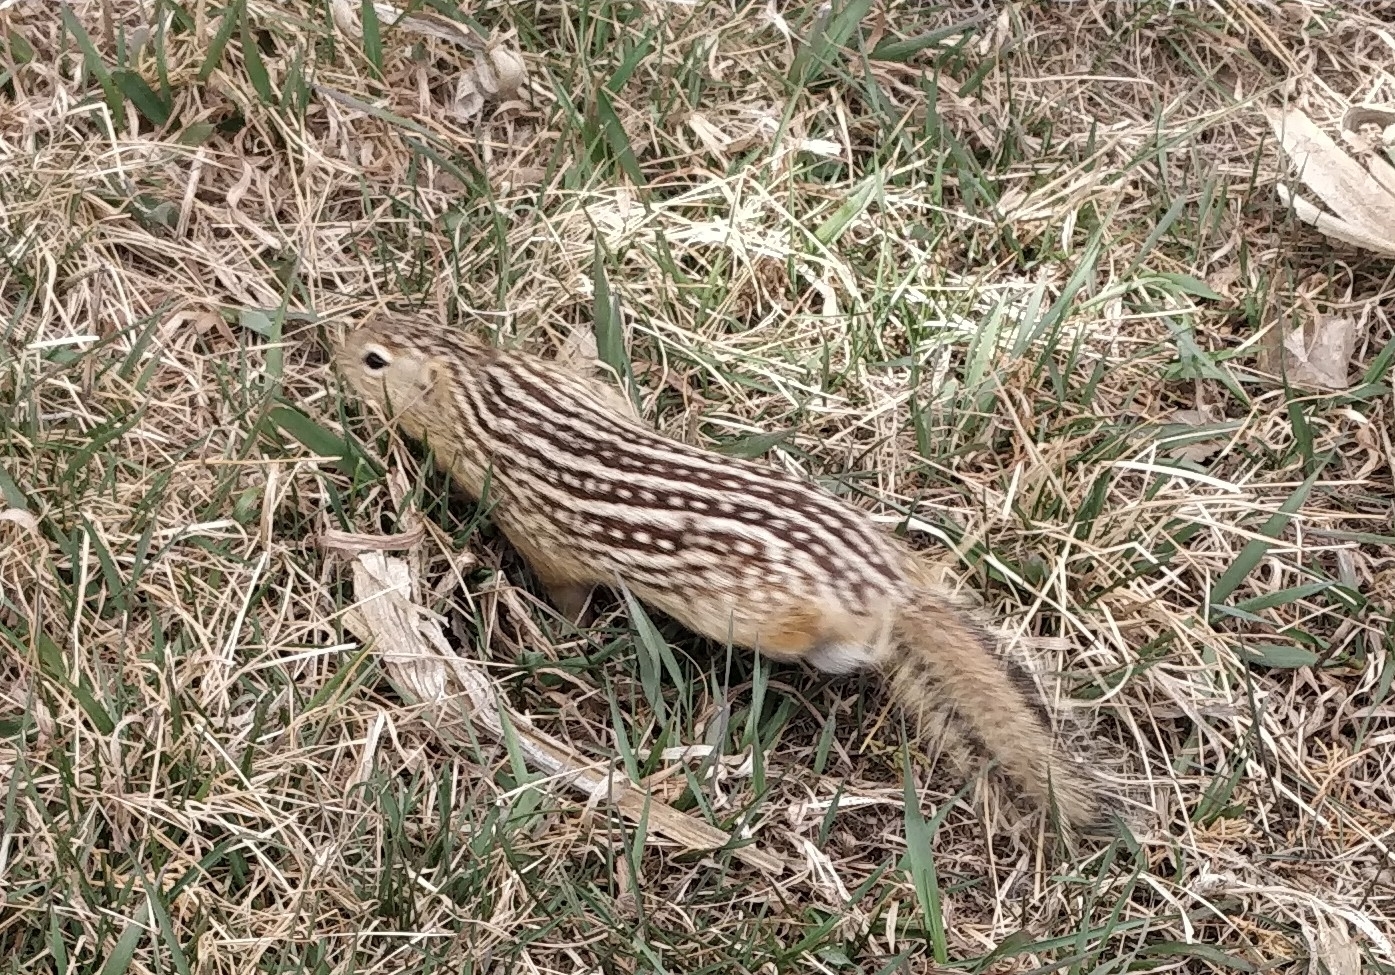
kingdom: Animalia
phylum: Chordata
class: Mammalia
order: Rodentia
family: Sciuridae
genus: Ictidomys
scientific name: Ictidomys tridecemlineatus
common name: Thirteen-lined ground squirrel
